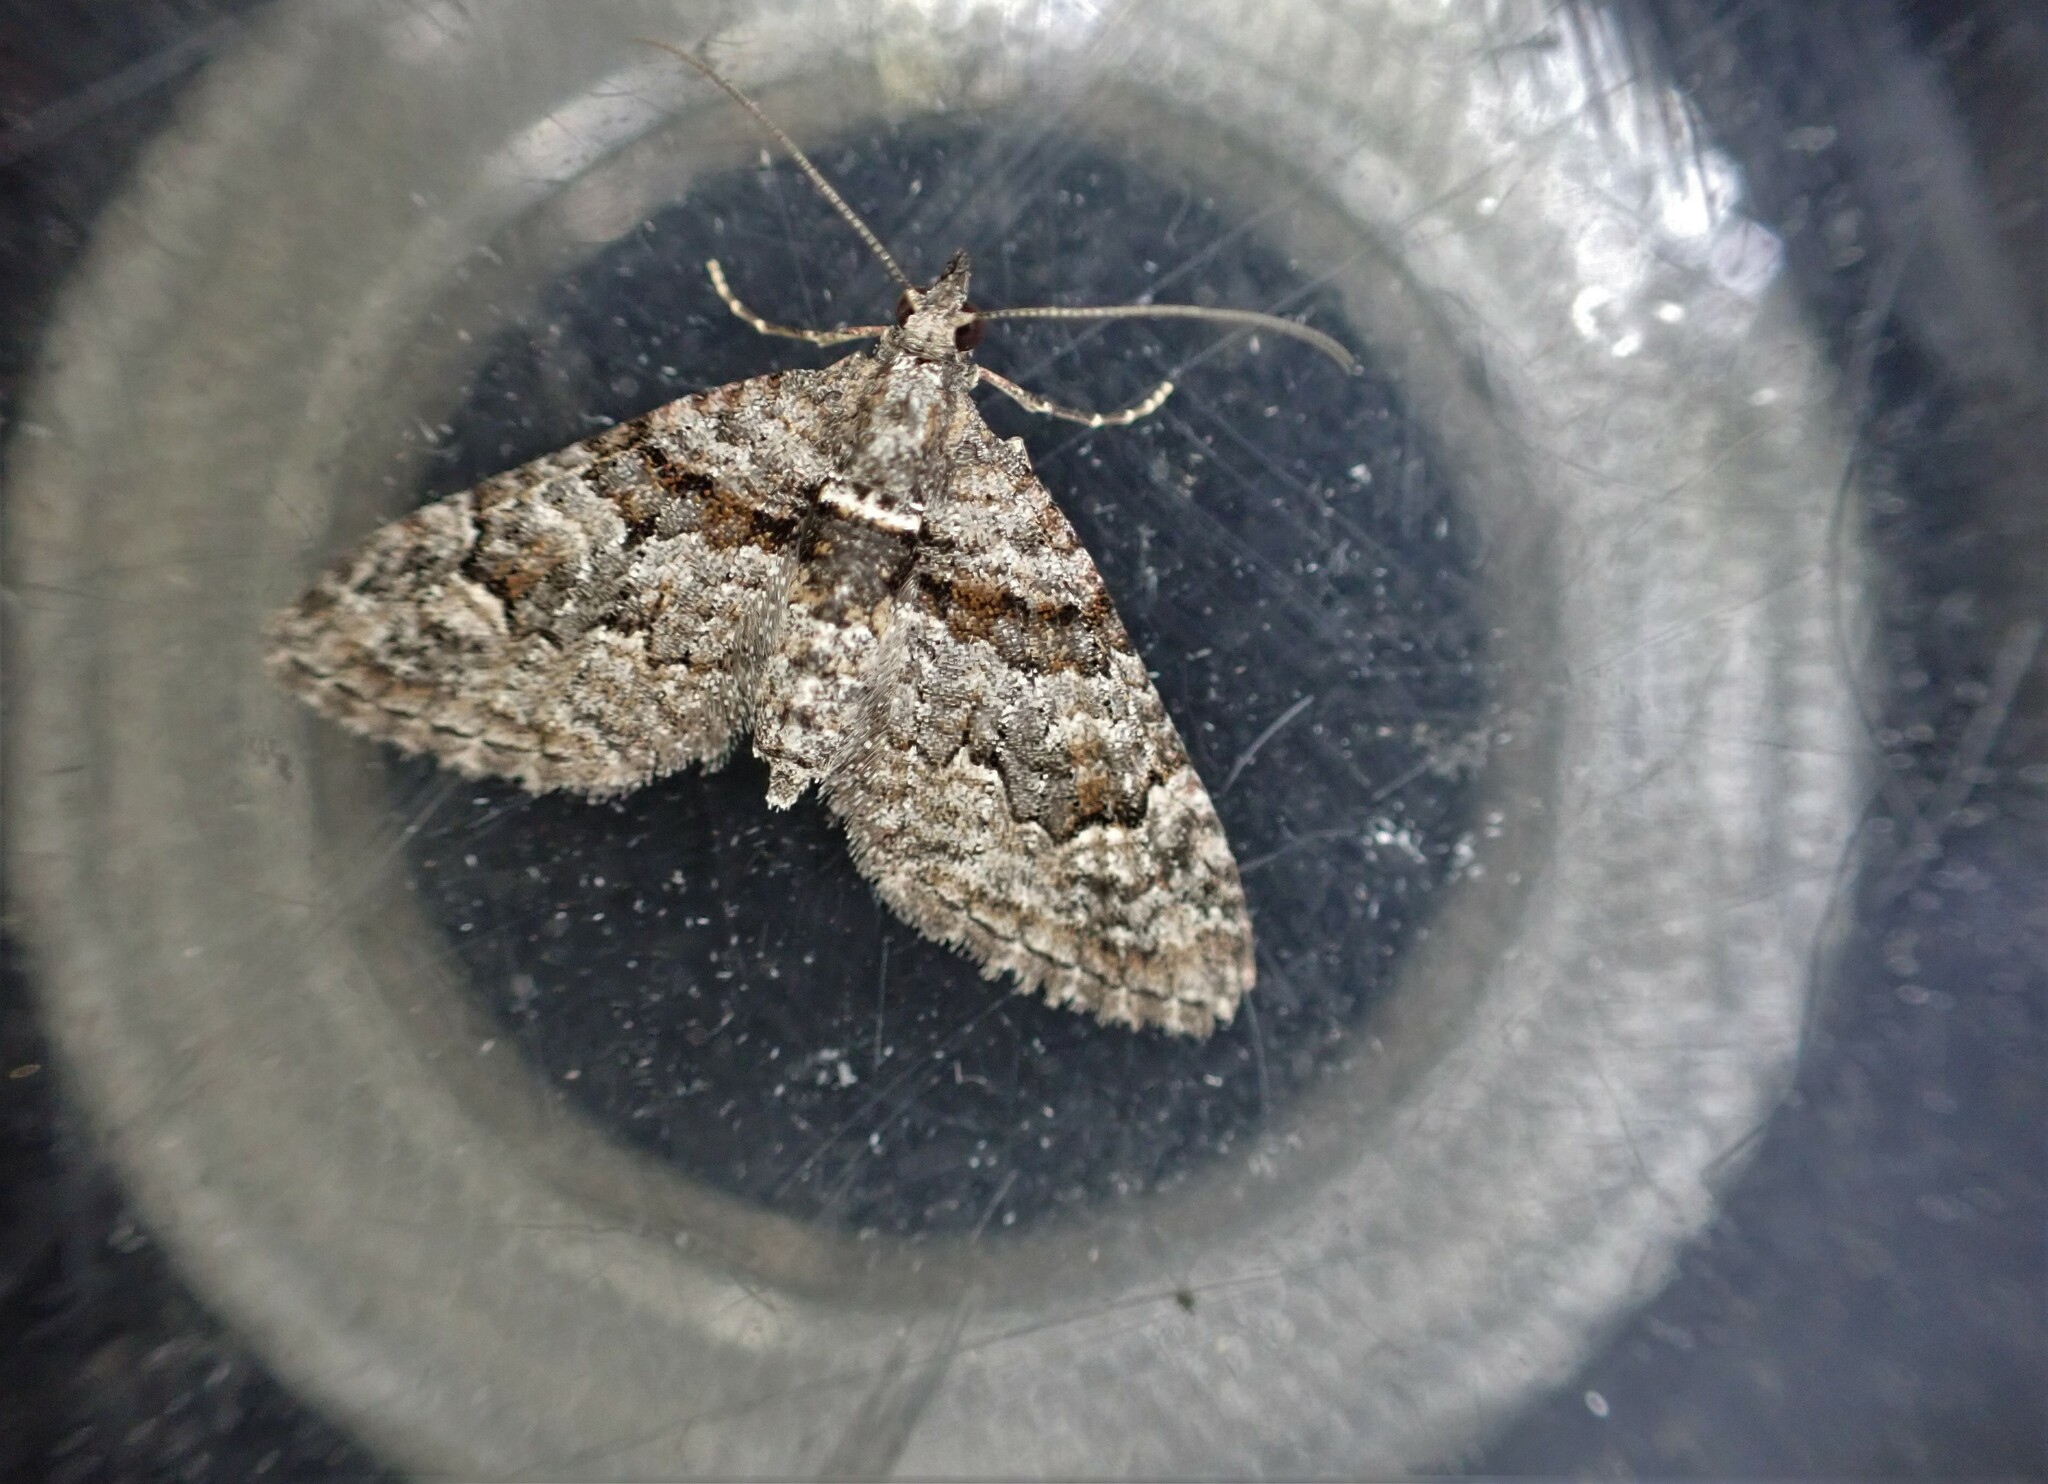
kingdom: Animalia
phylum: Arthropoda
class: Insecta
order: Lepidoptera
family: Geometridae
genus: Phrissogonus
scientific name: Phrissogonus laticostata
